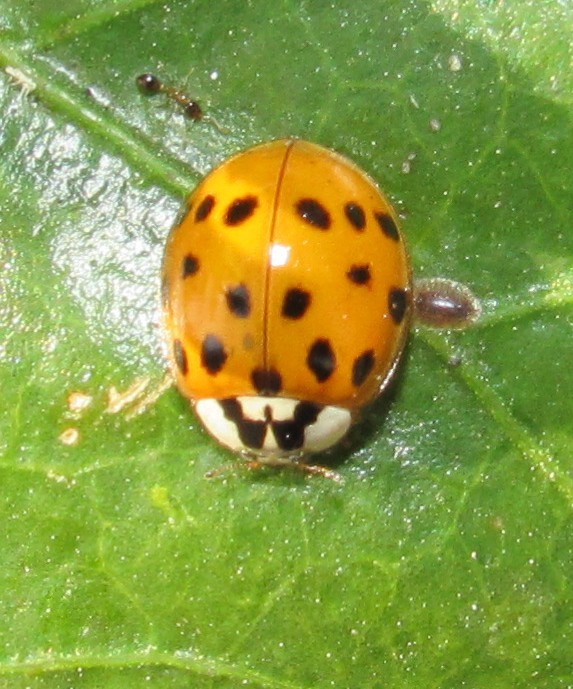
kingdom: Animalia
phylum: Arthropoda
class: Insecta
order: Coleoptera
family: Coccinellidae
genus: Harmonia
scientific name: Harmonia axyridis
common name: Harlequin ladybird
